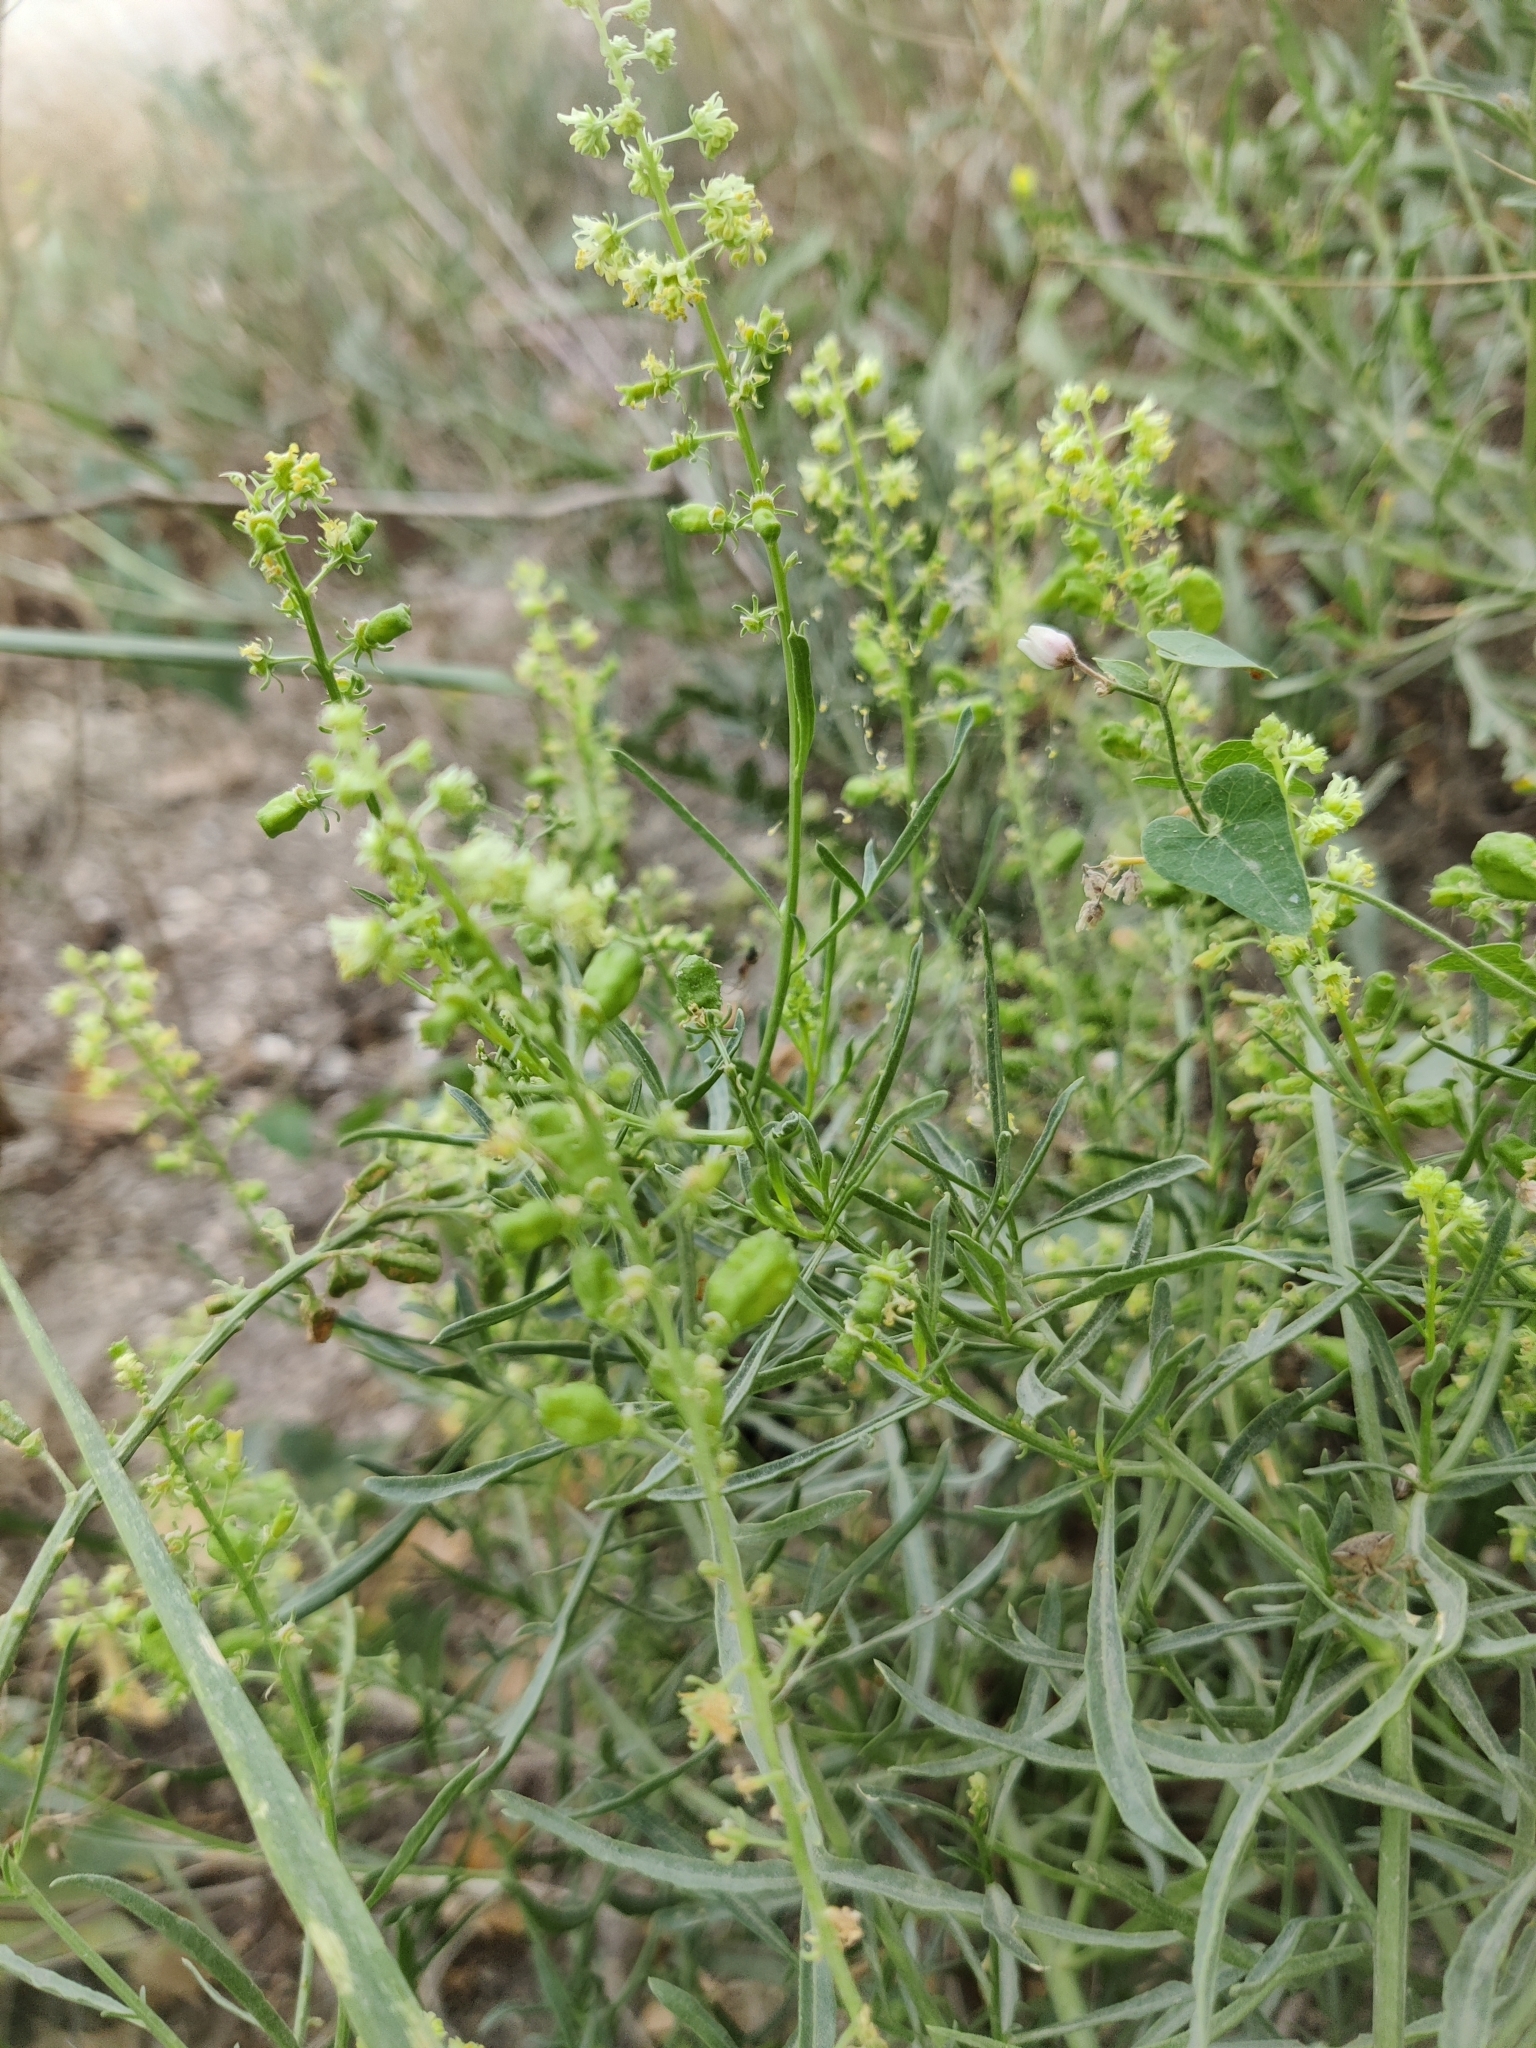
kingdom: Plantae
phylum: Tracheophyta
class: Magnoliopsida
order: Brassicales
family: Resedaceae
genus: Reseda
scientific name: Reseda lutea
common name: Wild mignonette
